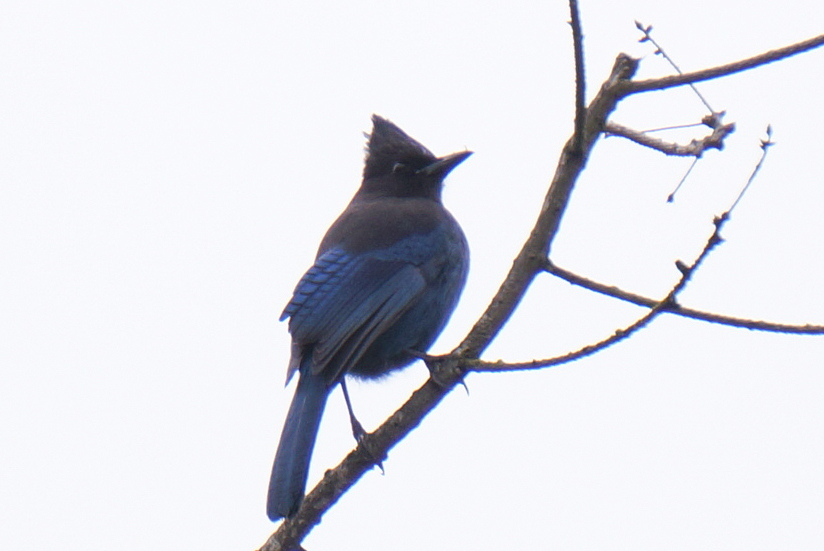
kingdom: Animalia
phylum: Chordata
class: Aves
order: Passeriformes
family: Corvidae
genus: Cyanocitta
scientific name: Cyanocitta stelleri
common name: Steller's jay
